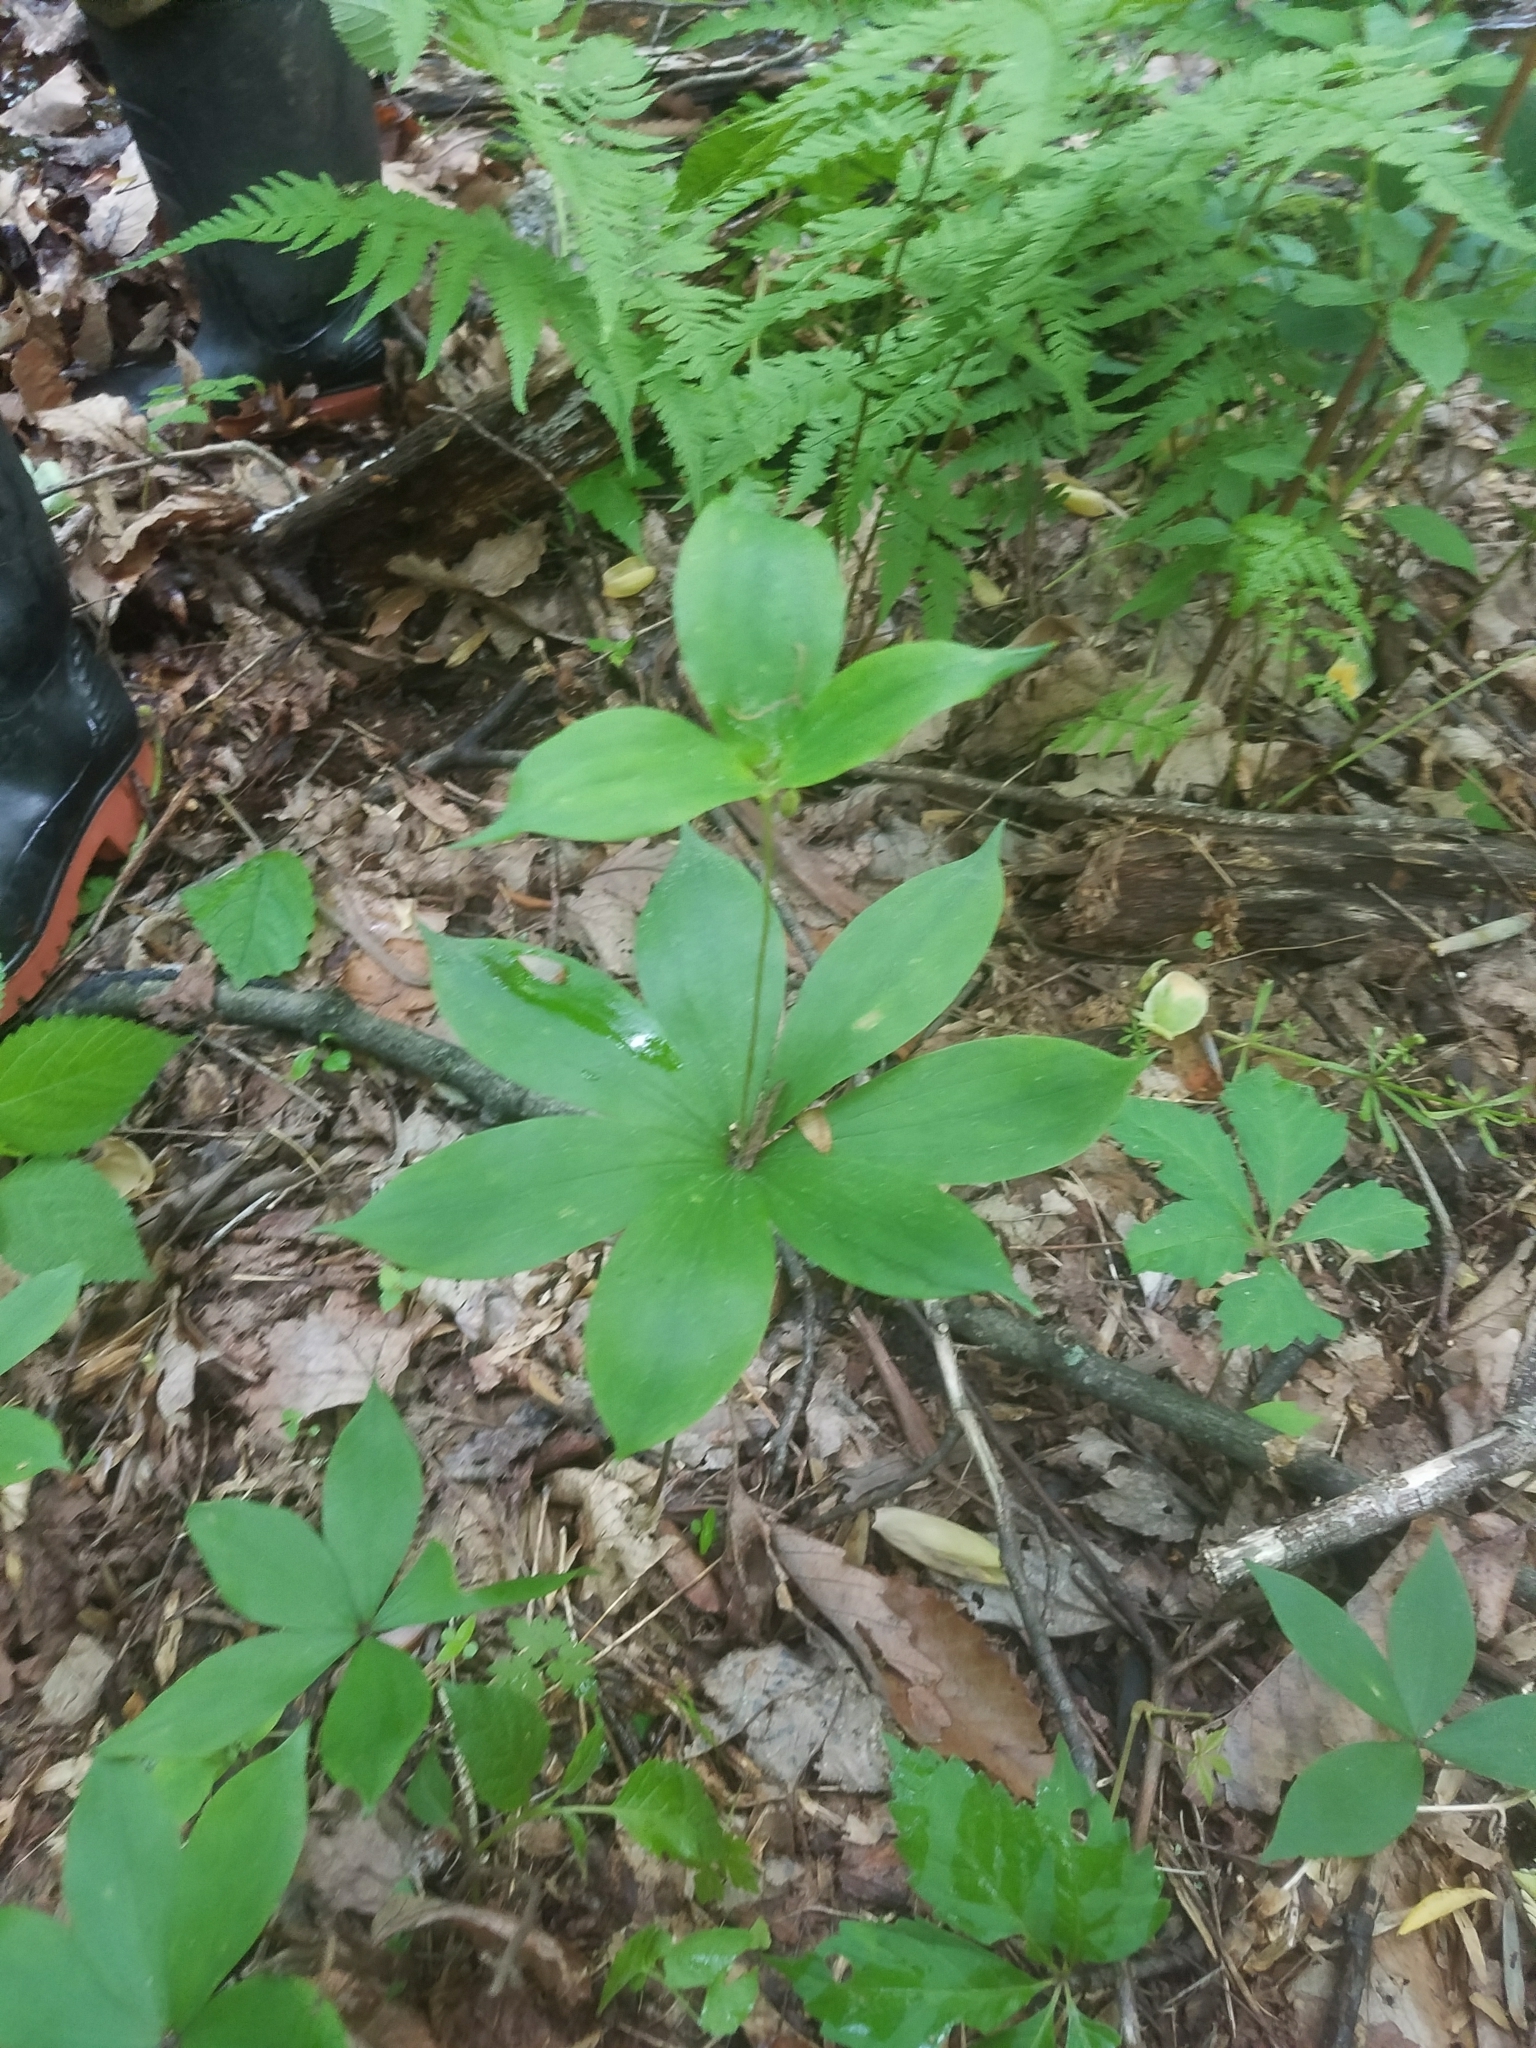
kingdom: Plantae
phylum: Tracheophyta
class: Liliopsida
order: Liliales
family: Liliaceae
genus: Medeola
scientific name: Medeola virginiana
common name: Indian cucumber-root
